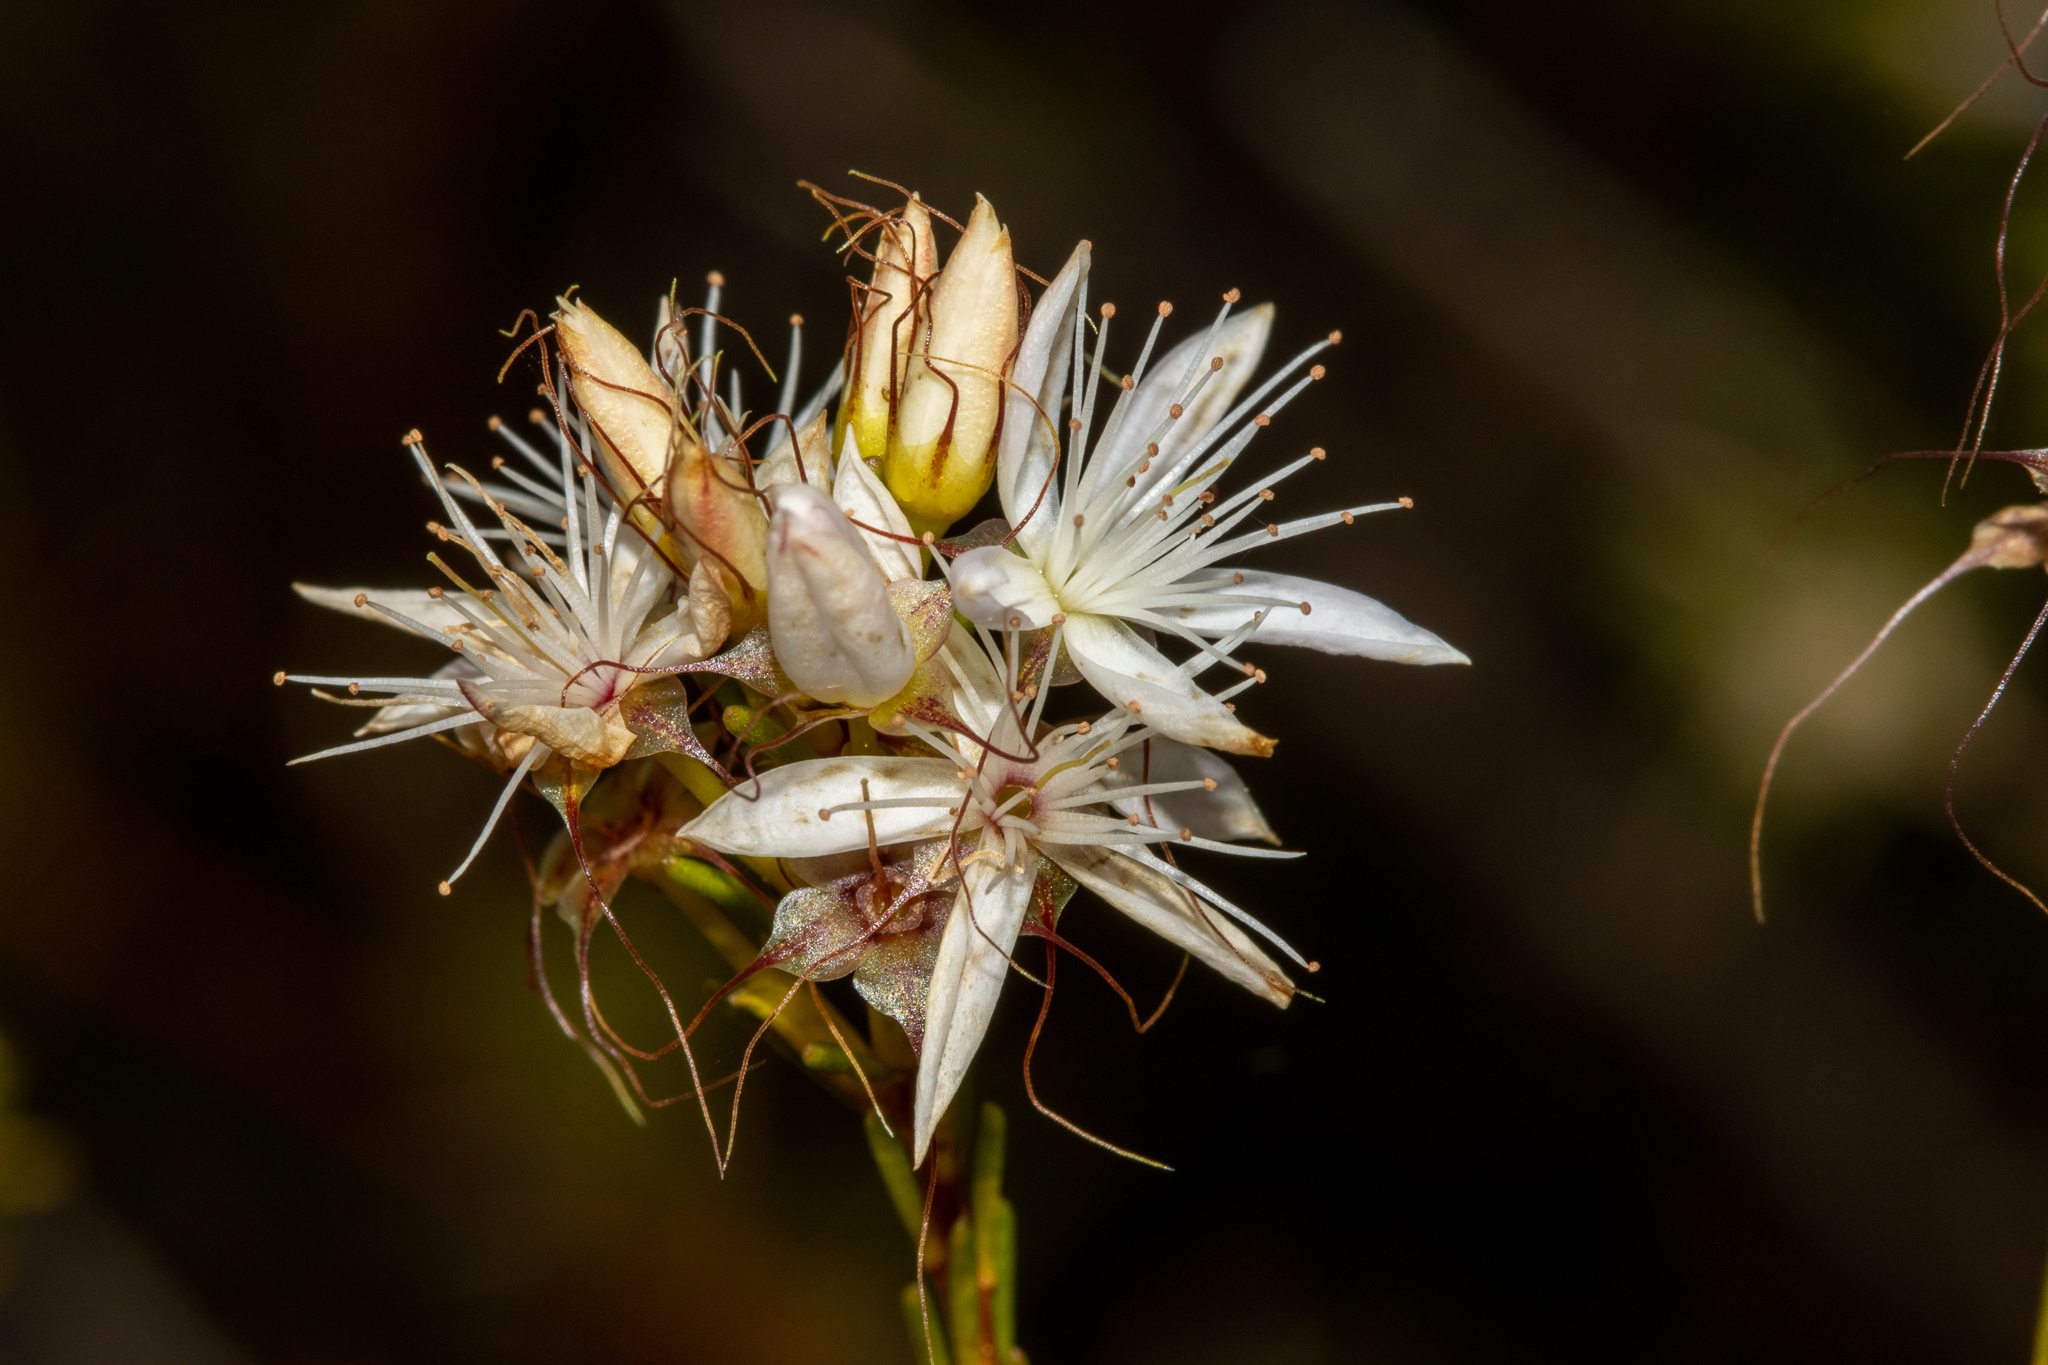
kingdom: Plantae
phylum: Tracheophyta
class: Magnoliopsida
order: Myrtales
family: Myrtaceae
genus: Calytrix
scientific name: Calytrix tetragona
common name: Common fringe myrtle
